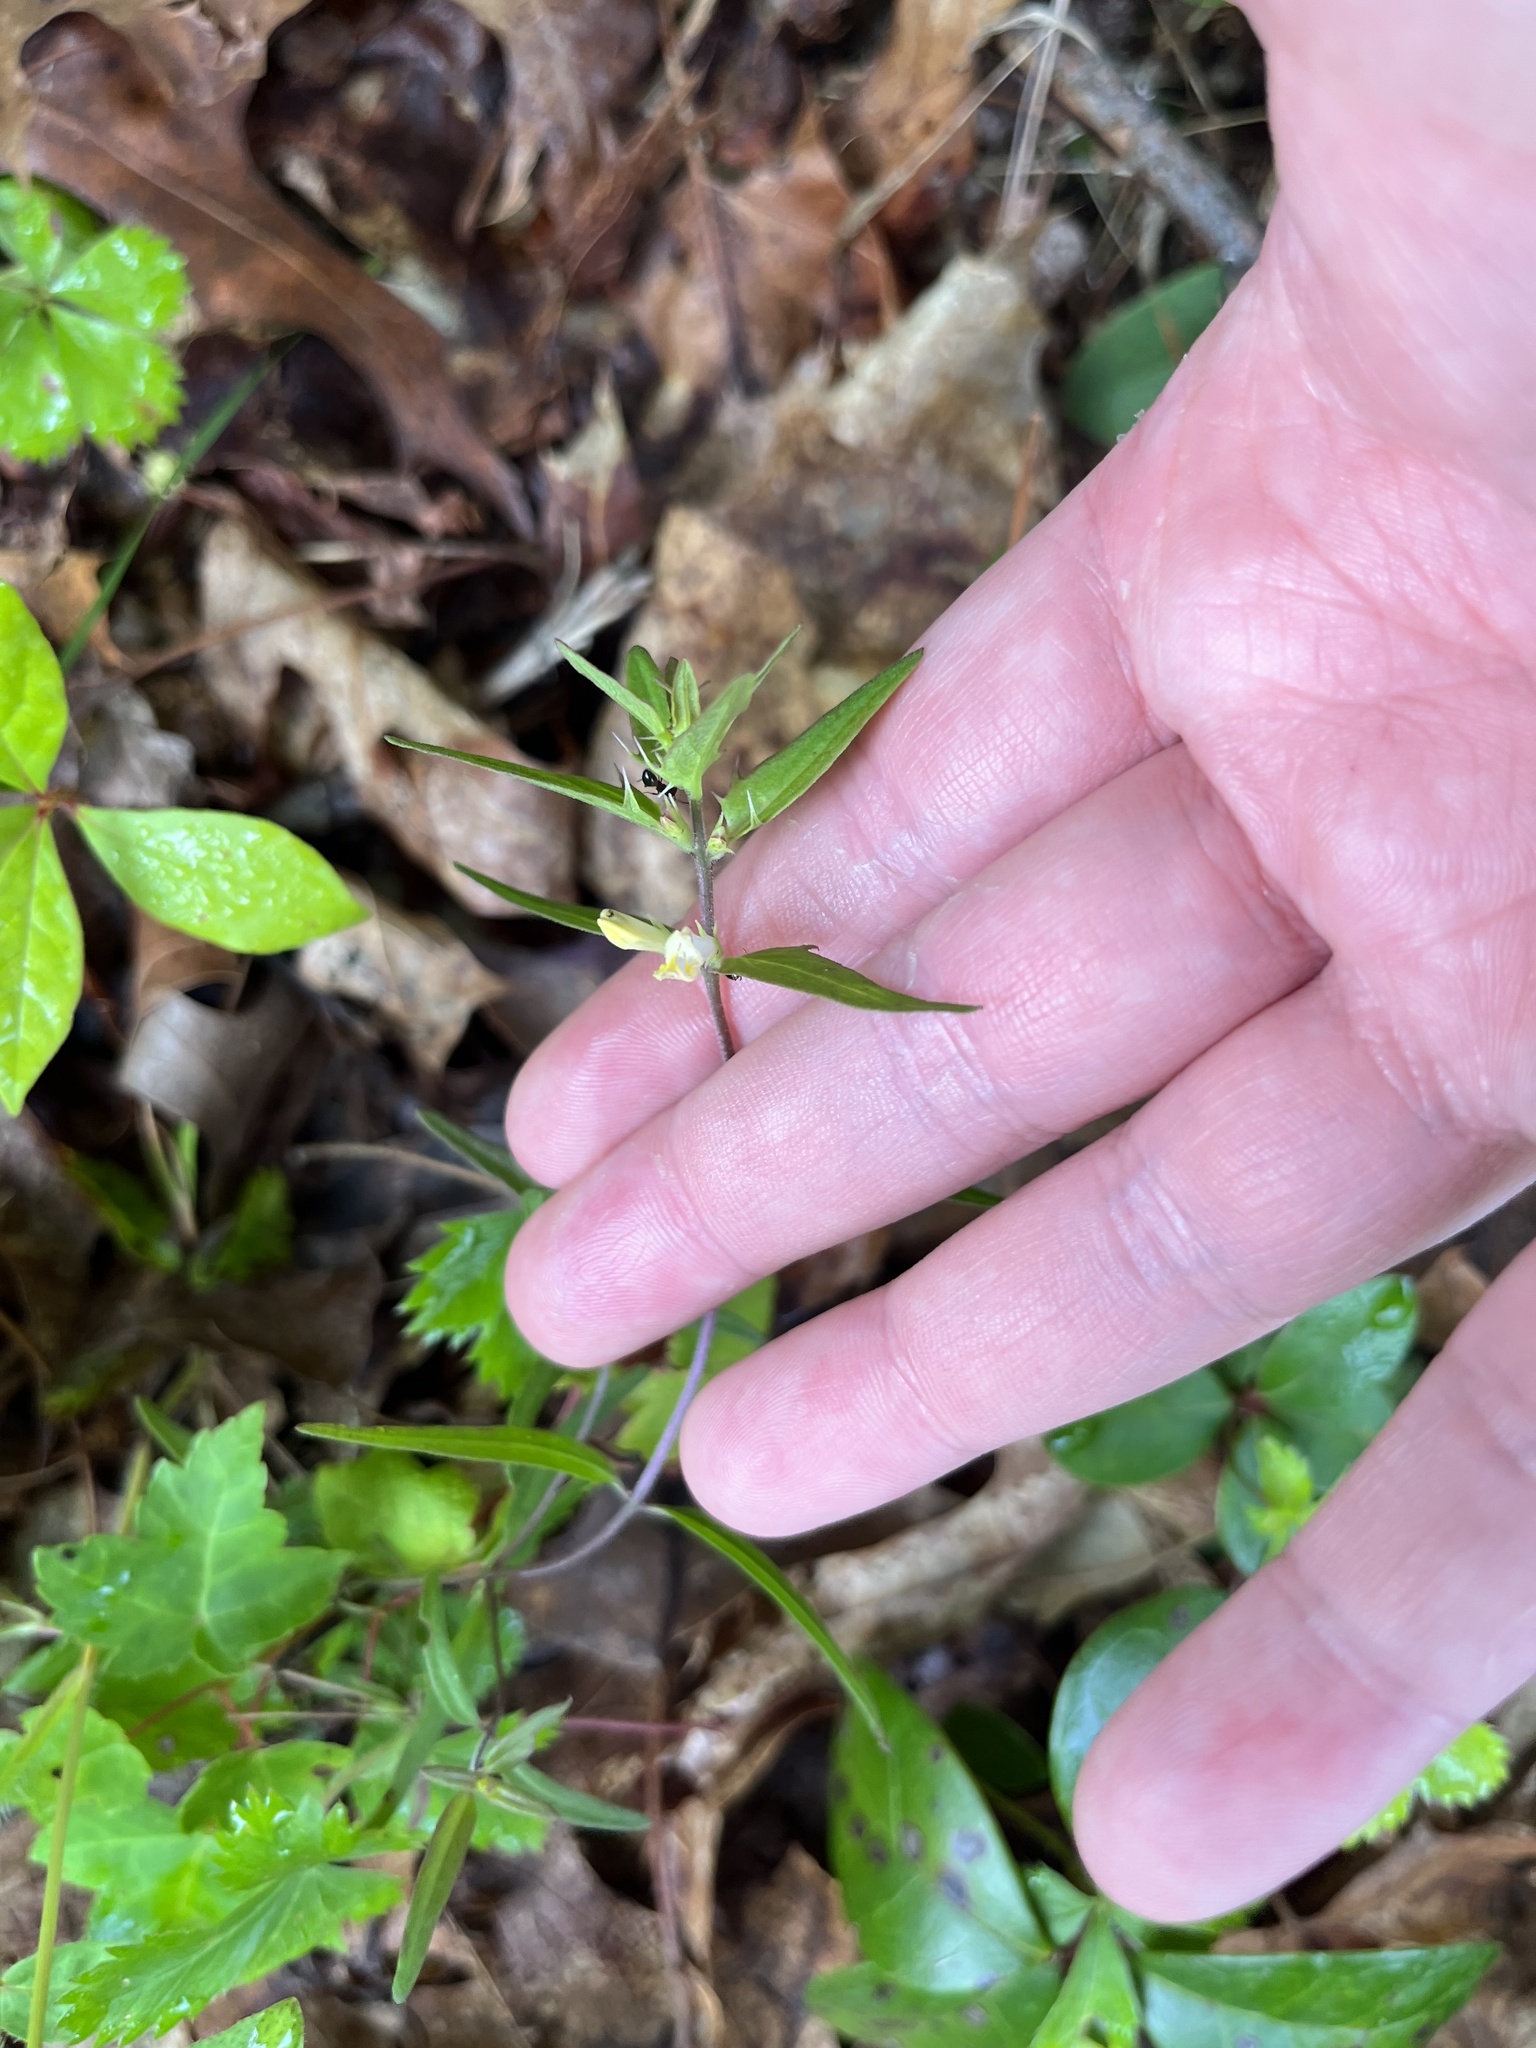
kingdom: Plantae
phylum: Tracheophyta
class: Magnoliopsida
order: Lamiales
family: Orobanchaceae
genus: Melampyrum
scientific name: Melampyrum lineare
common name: American cow-wheat
